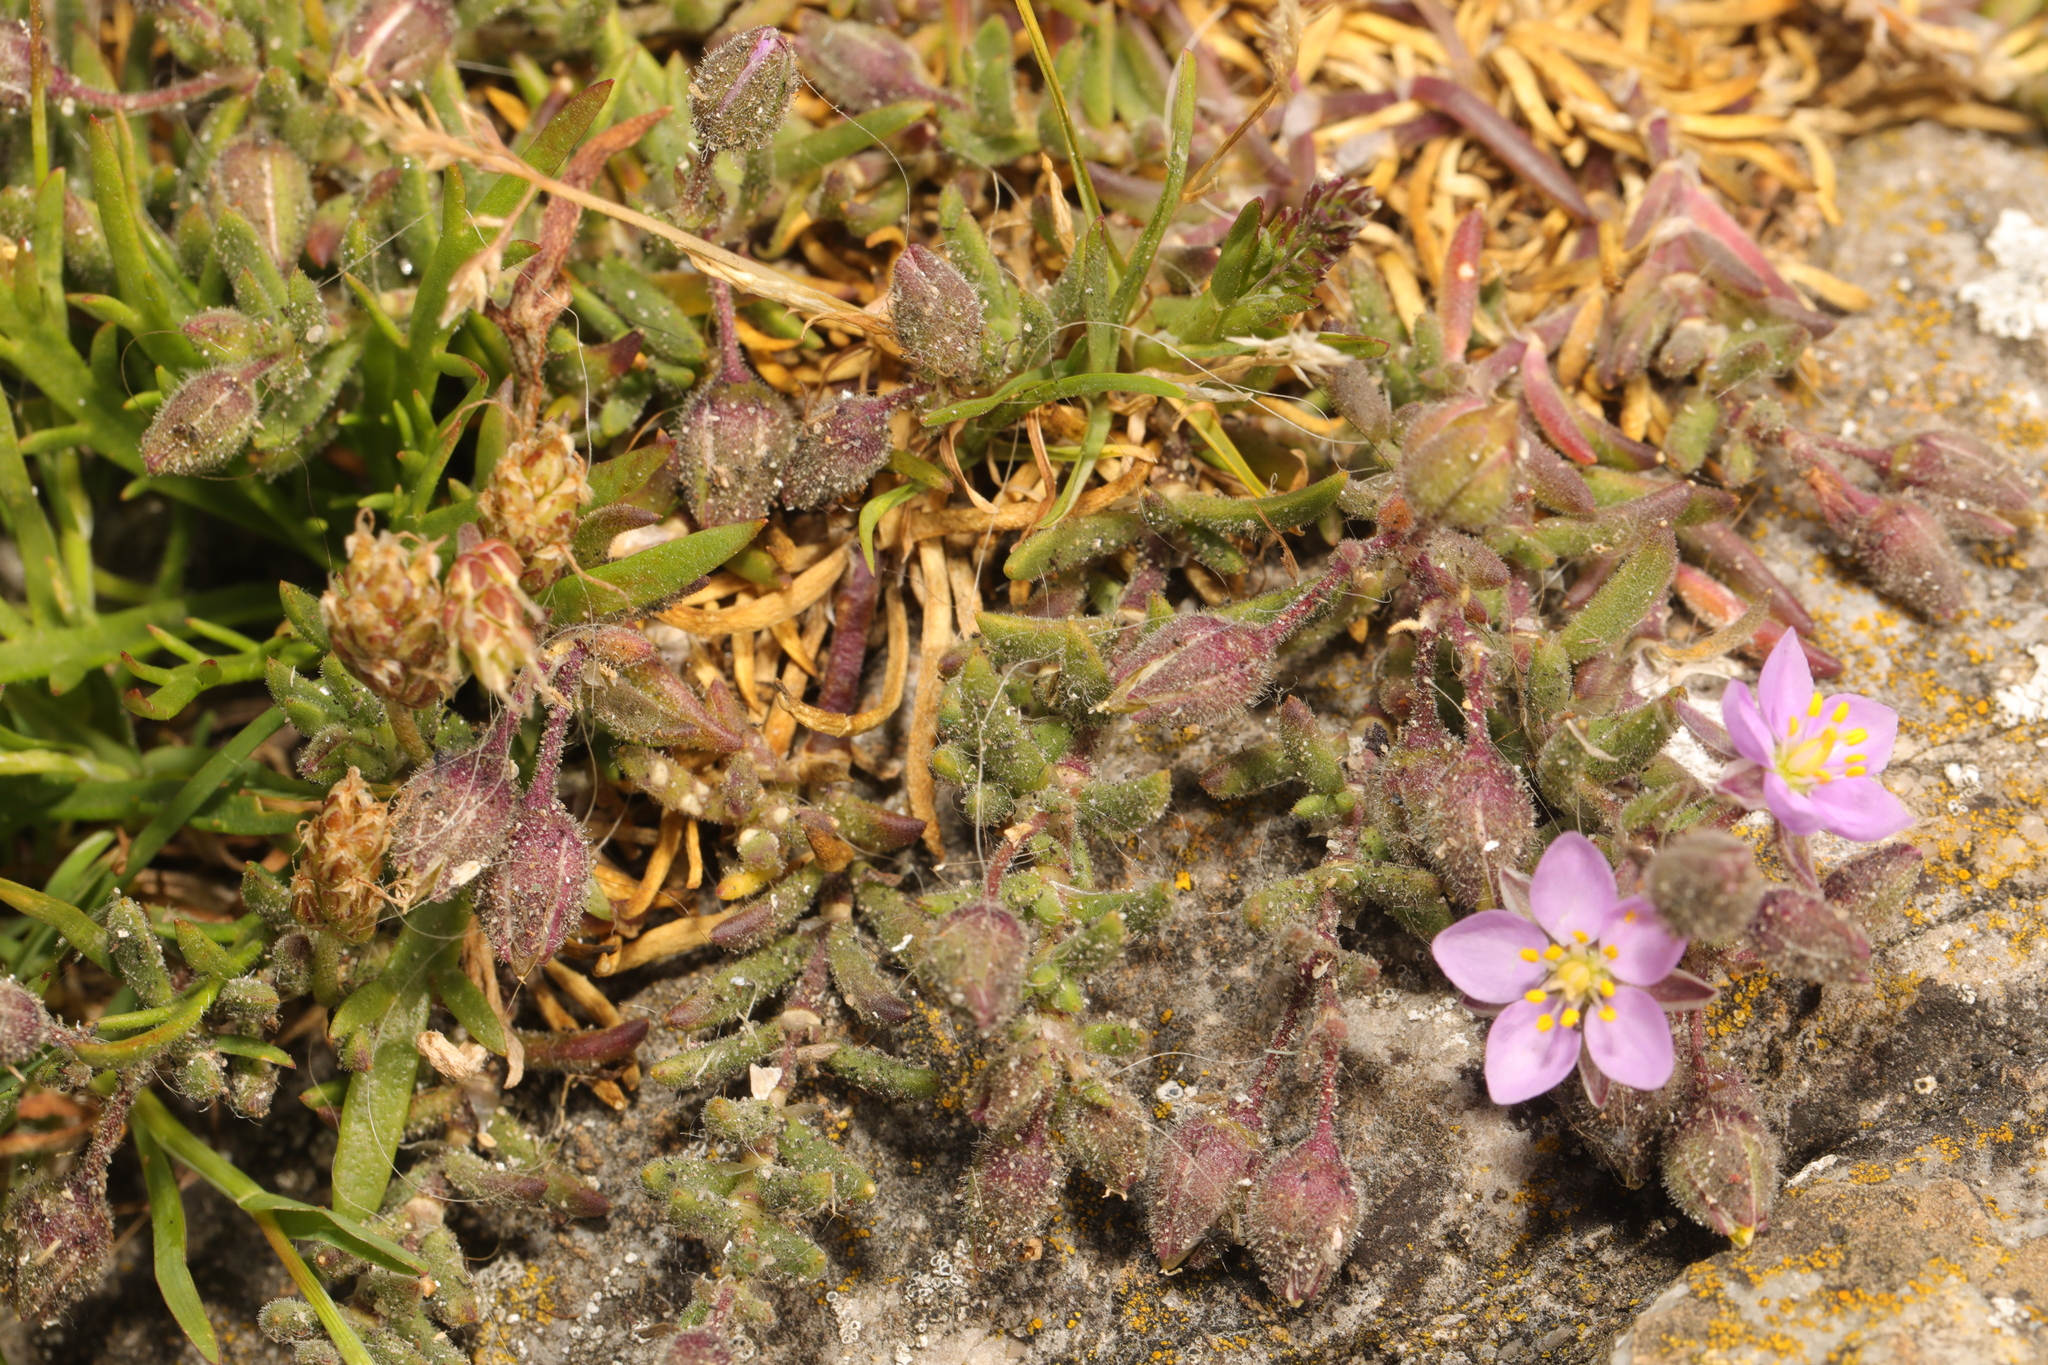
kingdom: Plantae
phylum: Tracheophyta
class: Magnoliopsida
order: Caryophyllales
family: Caryophyllaceae
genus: Spergularia
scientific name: Spergularia rubra
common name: Red sand-spurrey
